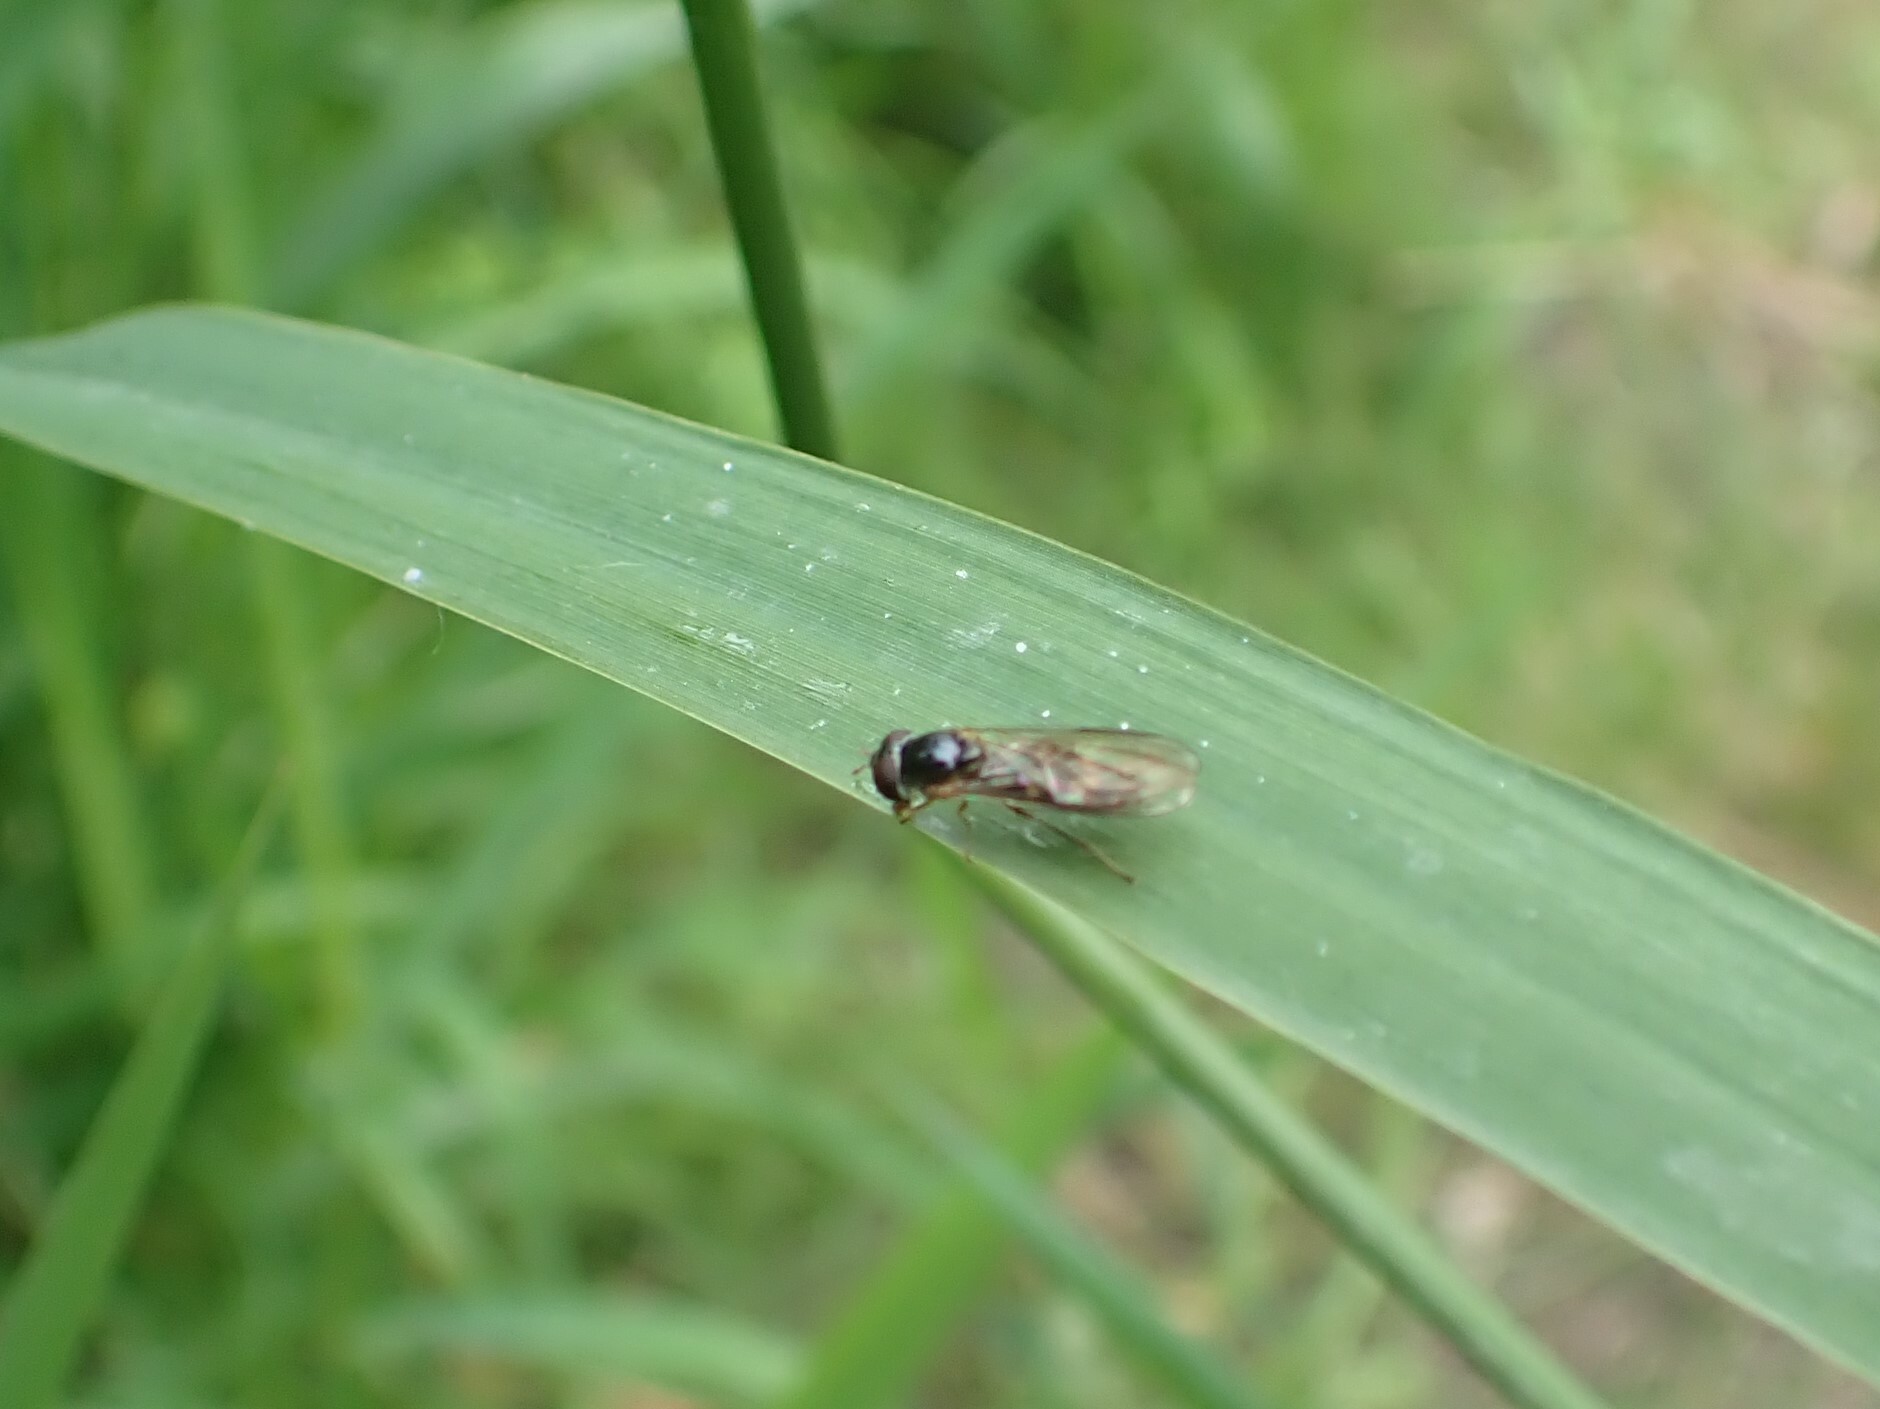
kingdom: Animalia
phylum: Arthropoda
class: Insecta
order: Diptera
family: Syrphidae
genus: Melanostoma
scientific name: Melanostoma mellina
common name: Hover fly
